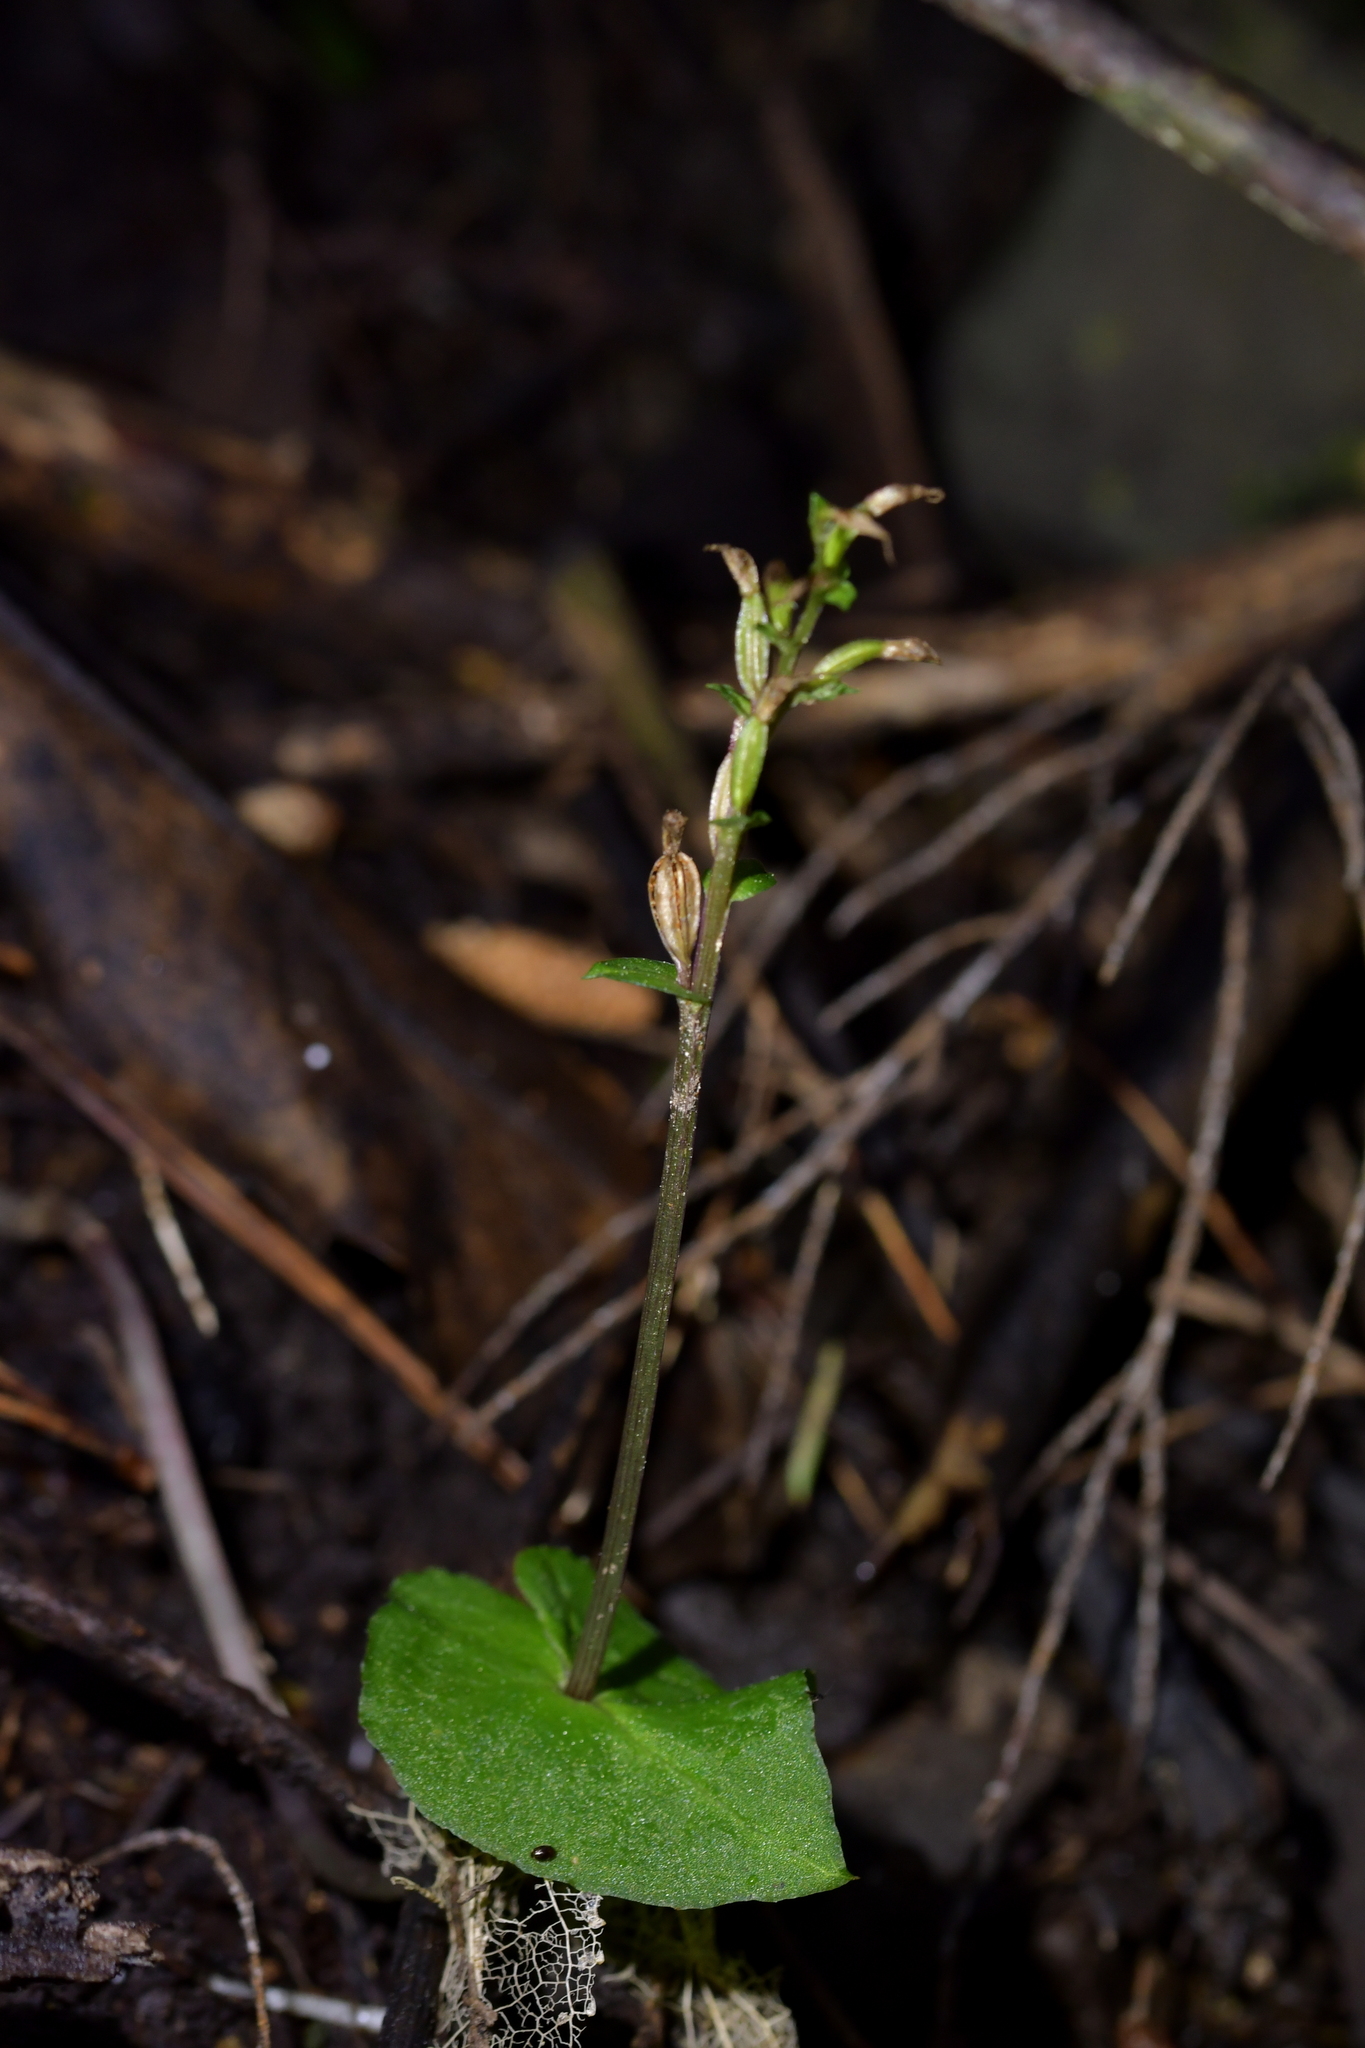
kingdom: Plantae
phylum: Tracheophyta
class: Liliopsida
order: Asparagales
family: Orchidaceae
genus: Acianthus
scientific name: Acianthus sinclairii
